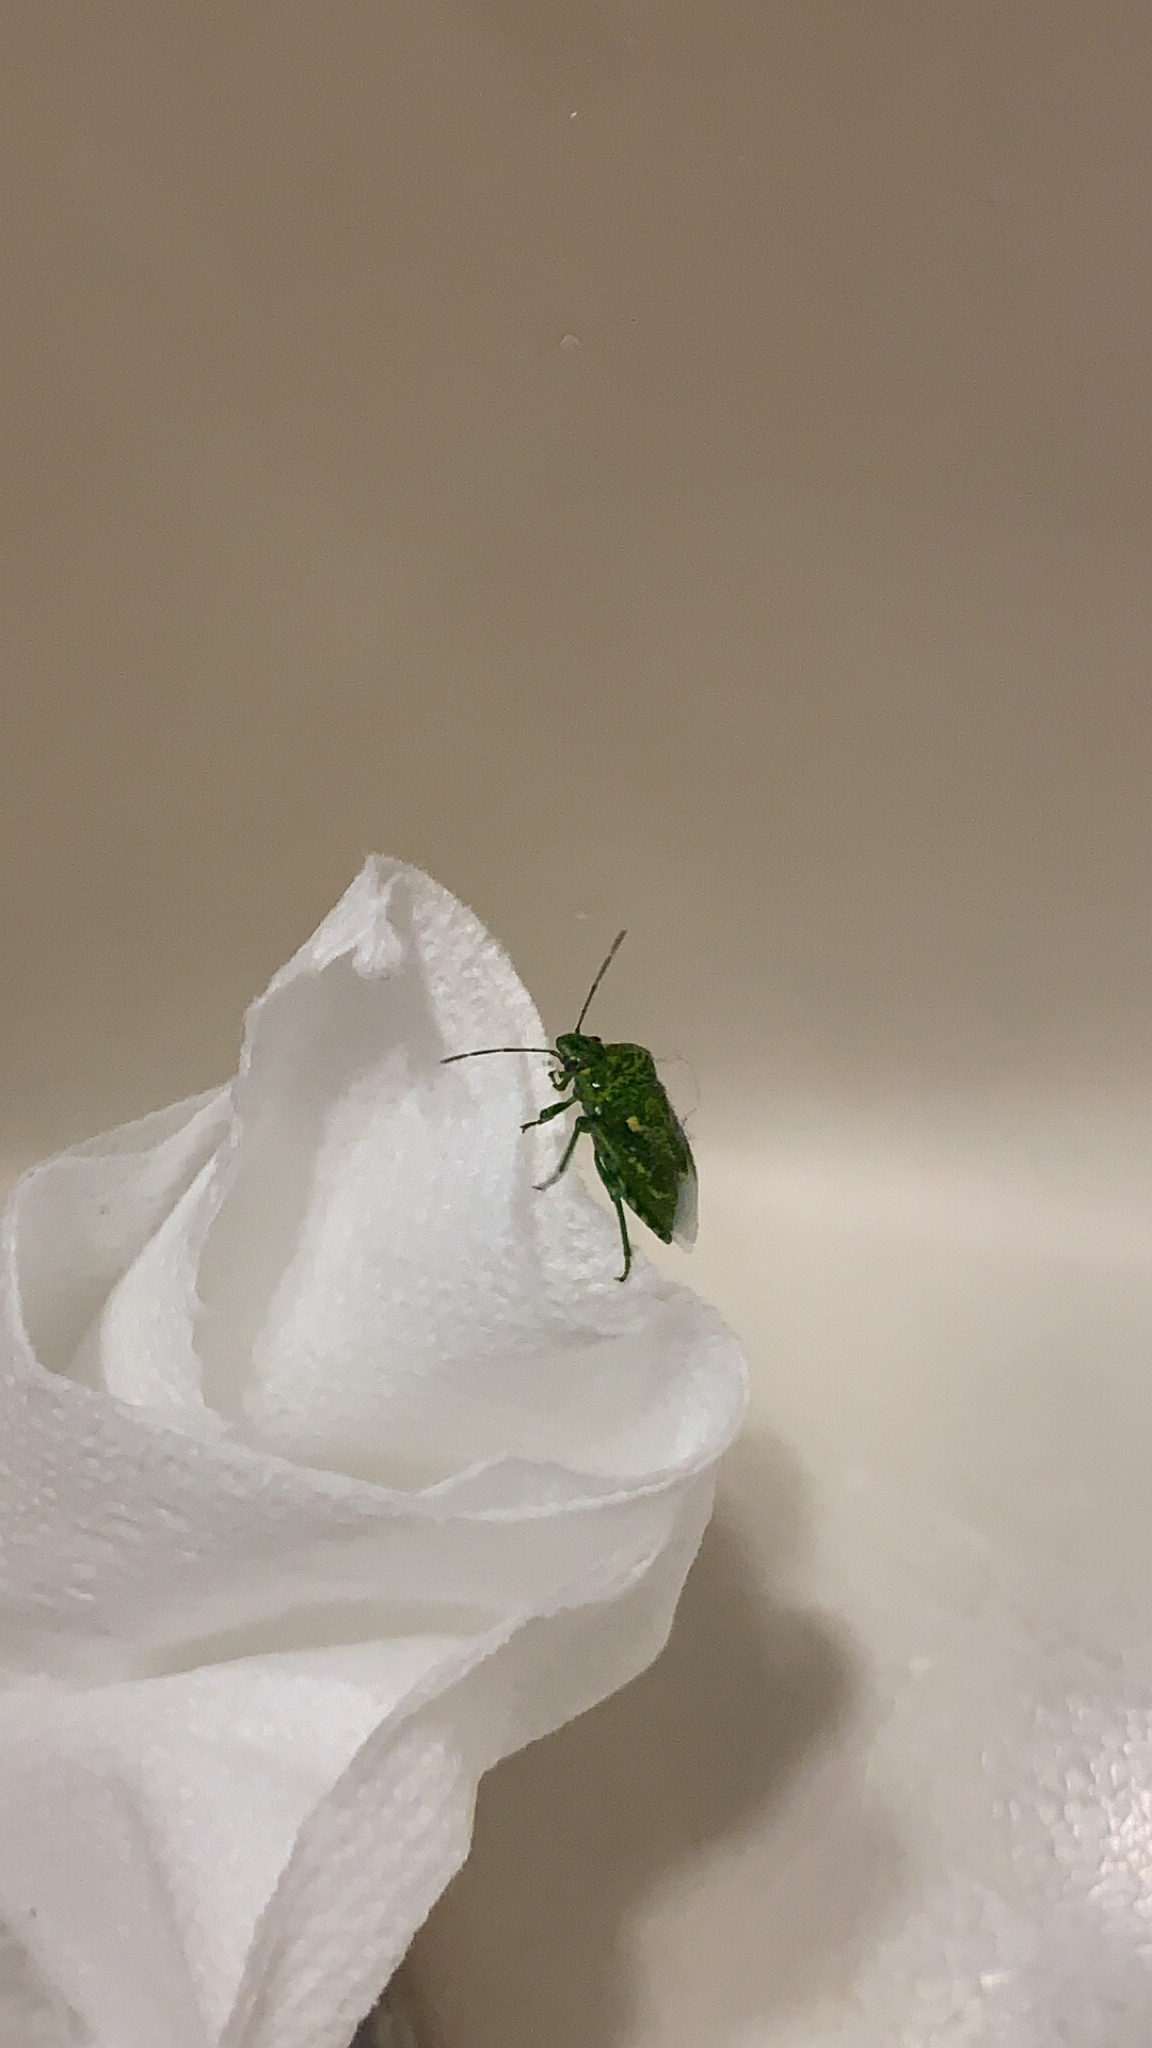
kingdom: Animalia
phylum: Arthropoda
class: Insecta
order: Hemiptera
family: Pentatomidae
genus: Banasa
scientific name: Banasa euchlora
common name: Cedar berry bug
